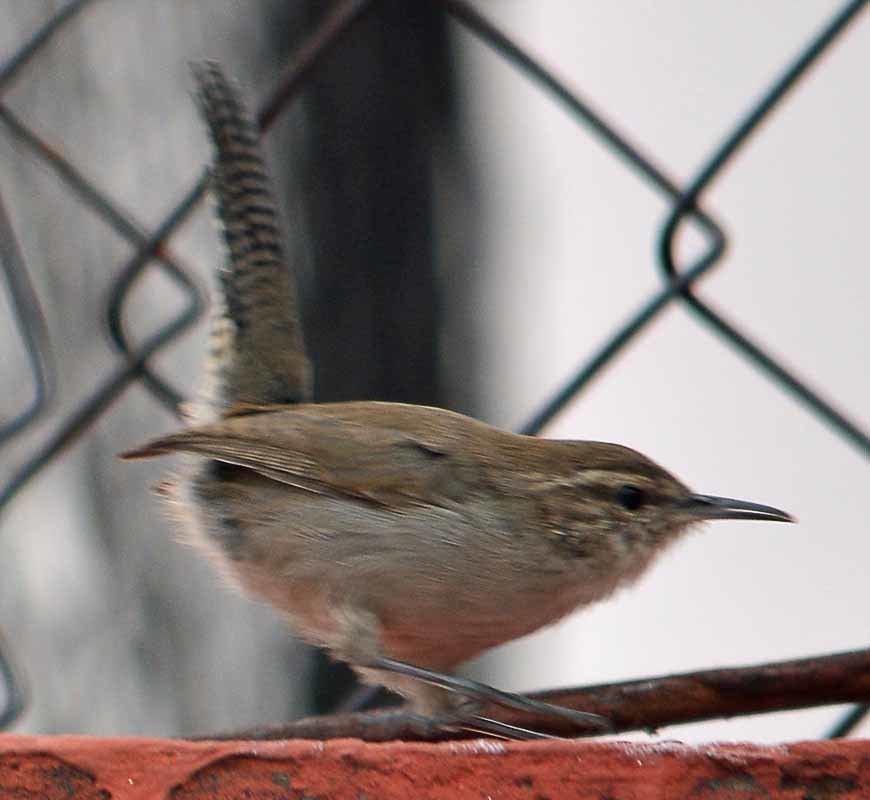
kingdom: Animalia
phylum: Chordata
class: Aves
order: Passeriformes
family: Troglodytidae
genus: Thryomanes
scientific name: Thryomanes bewickii
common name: Bewick's wren
